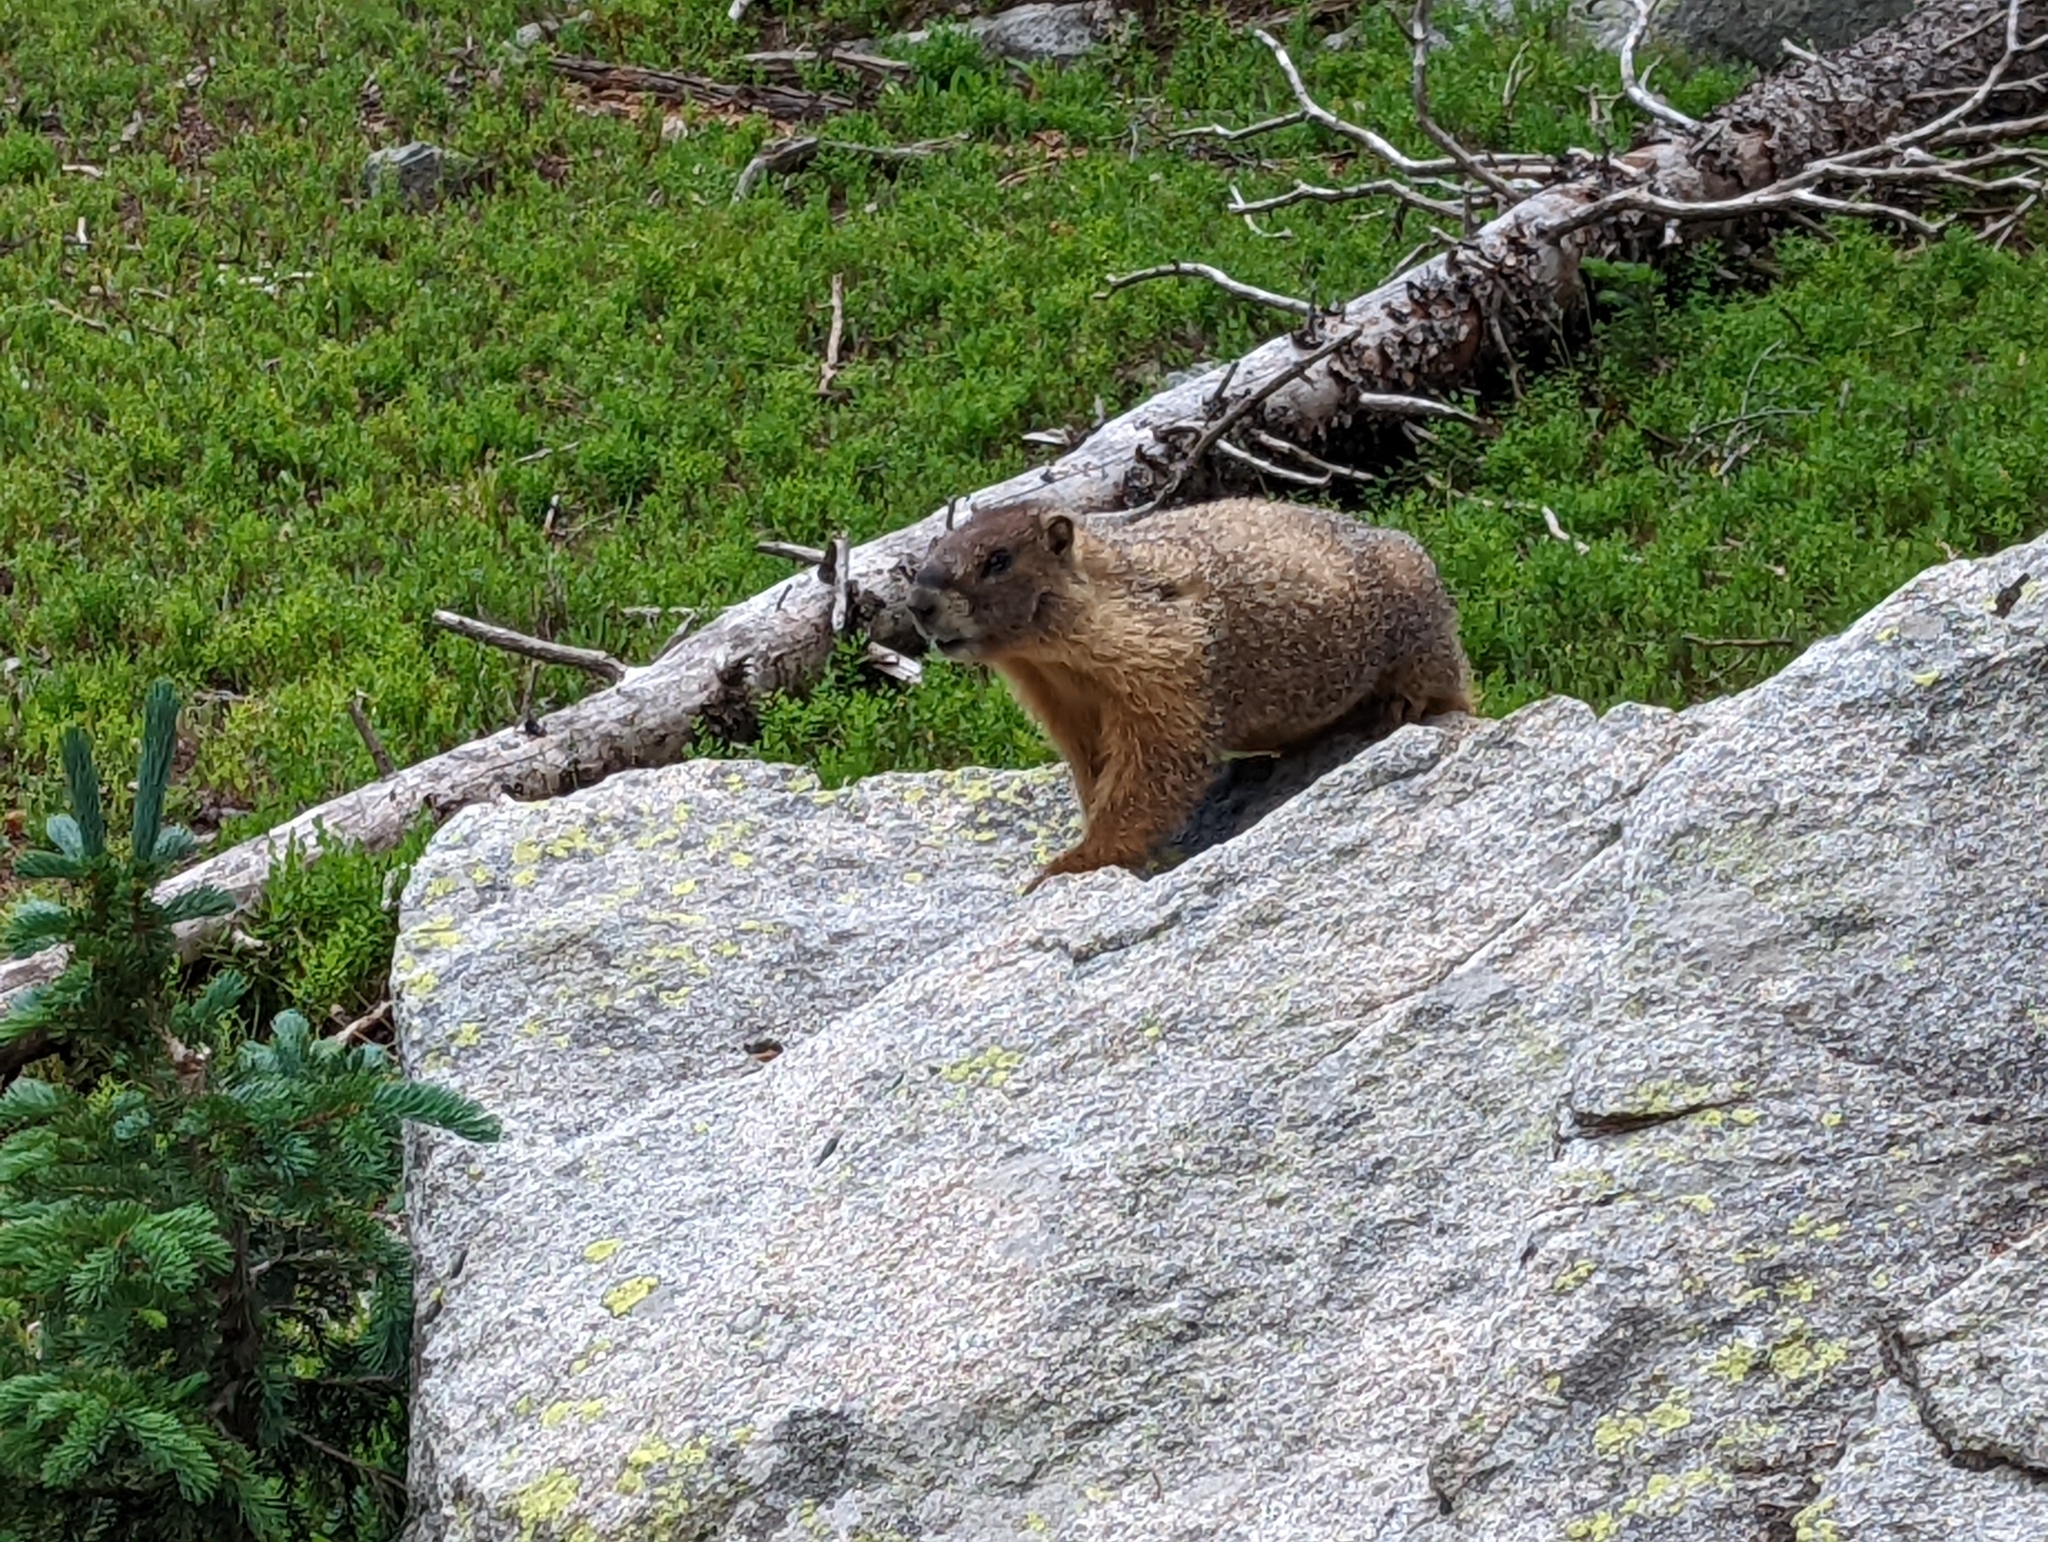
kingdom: Animalia
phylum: Chordata
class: Mammalia
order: Rodentia
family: Sciuridae
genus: Marmota
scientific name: Marmota flaviventris
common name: Yellow-bellied marmot
